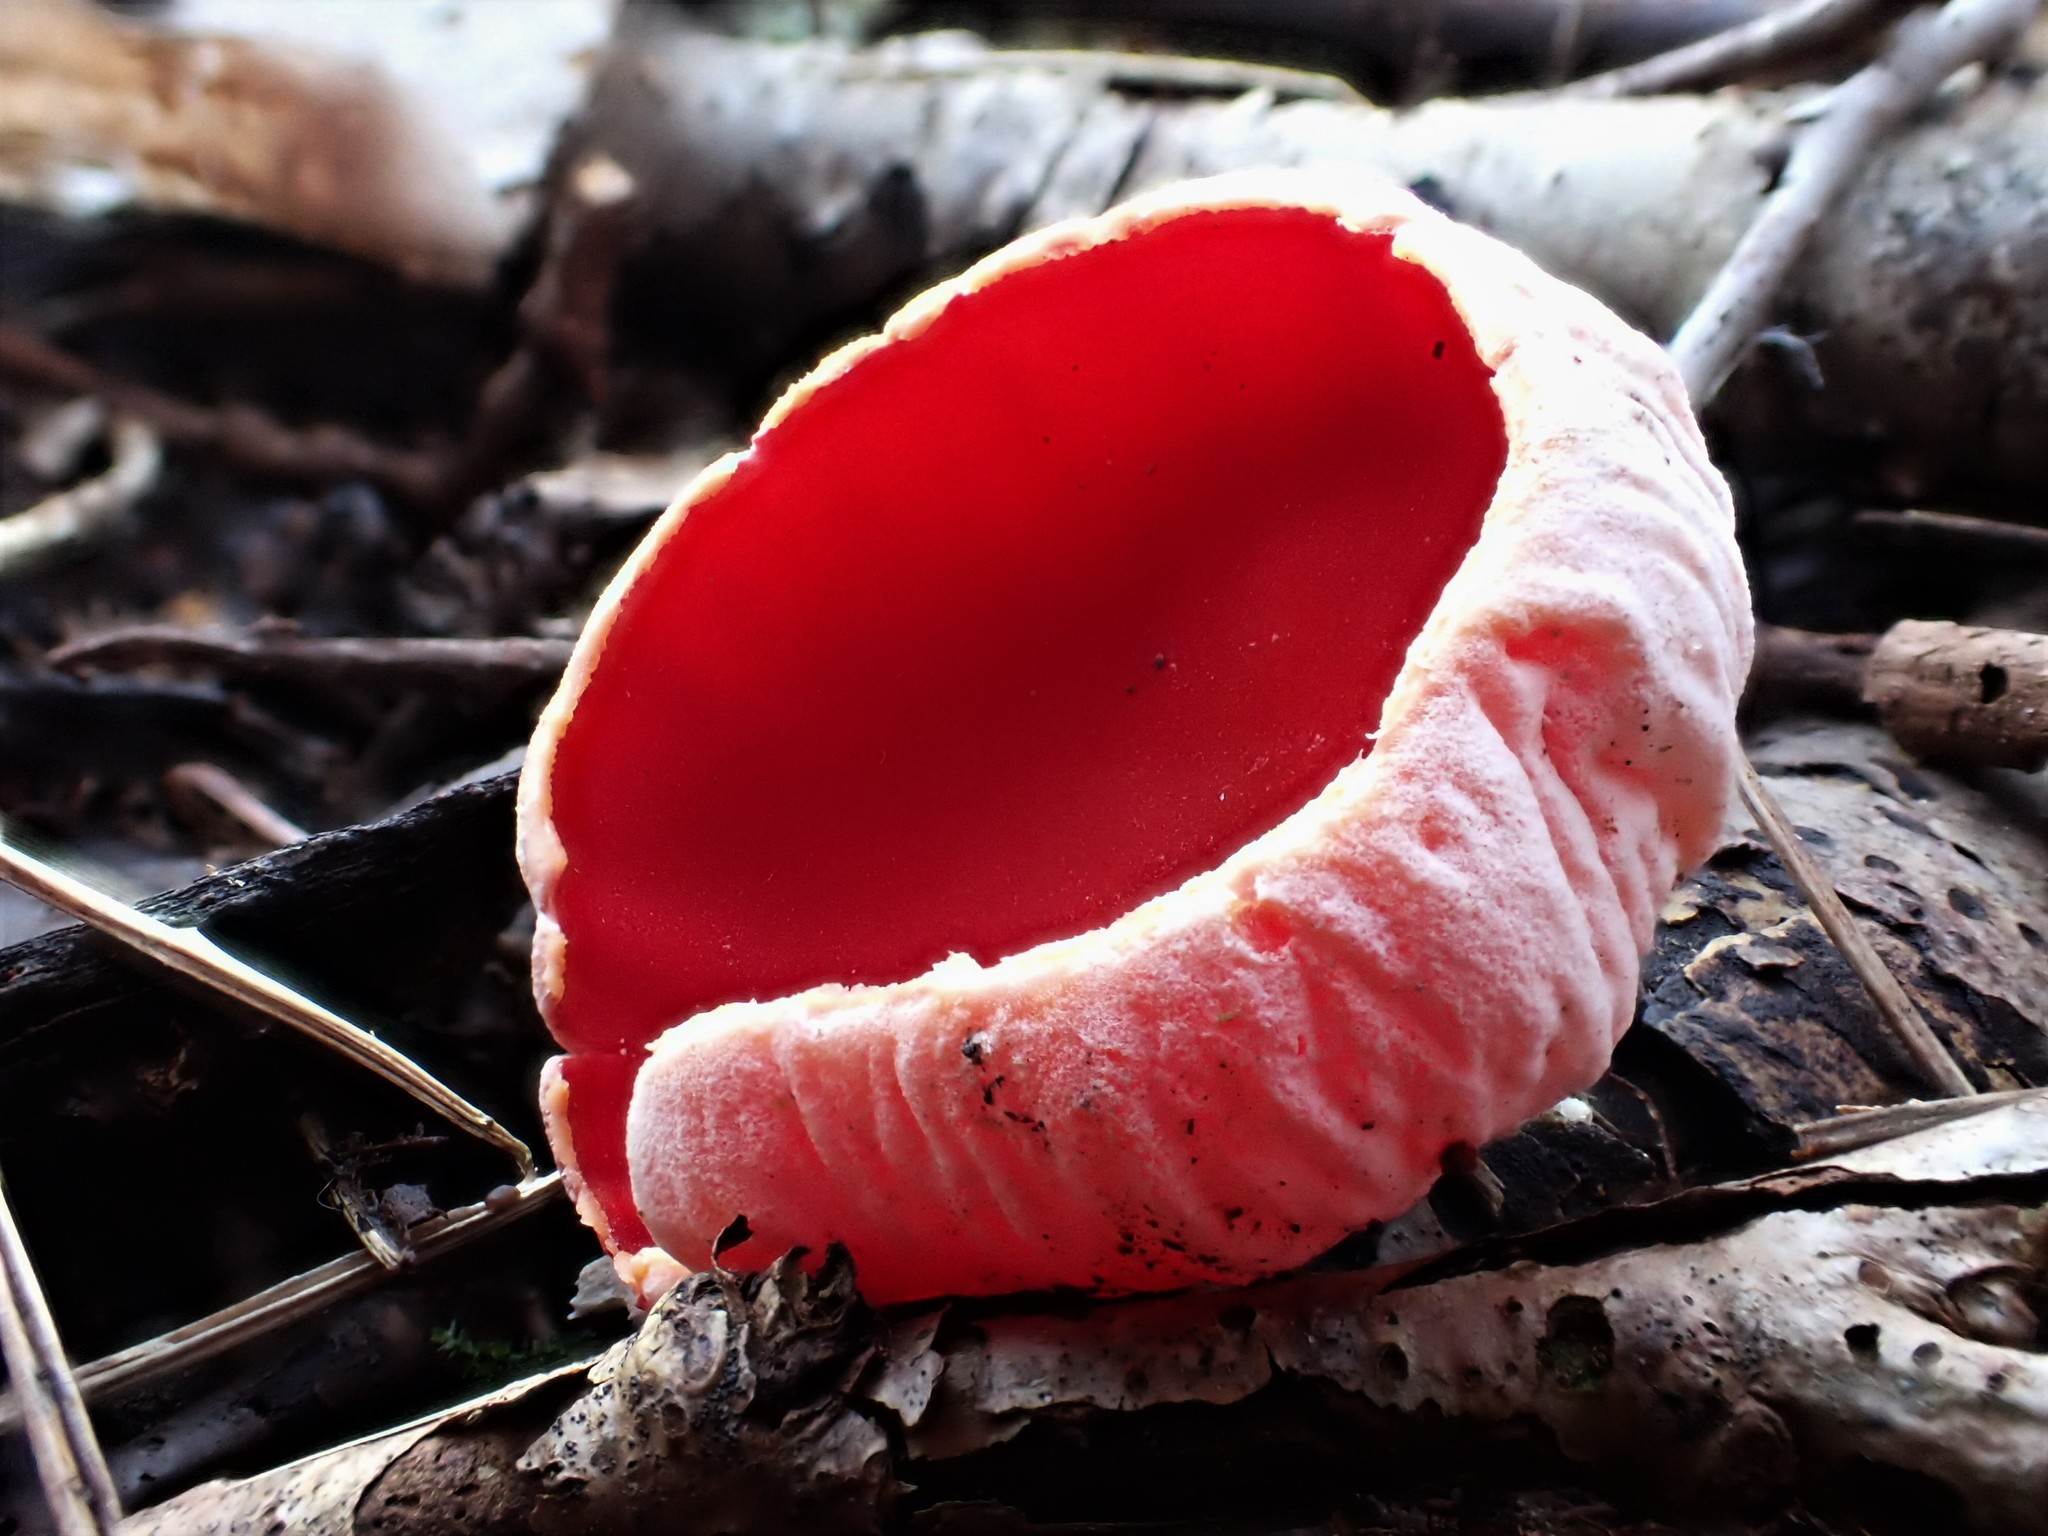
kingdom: Fungi
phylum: Ascomycota
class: Pezizomycetes
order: Pezizales
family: Sarcoscyphaceae
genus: Sarcoscypha
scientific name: Sarcoscypha
